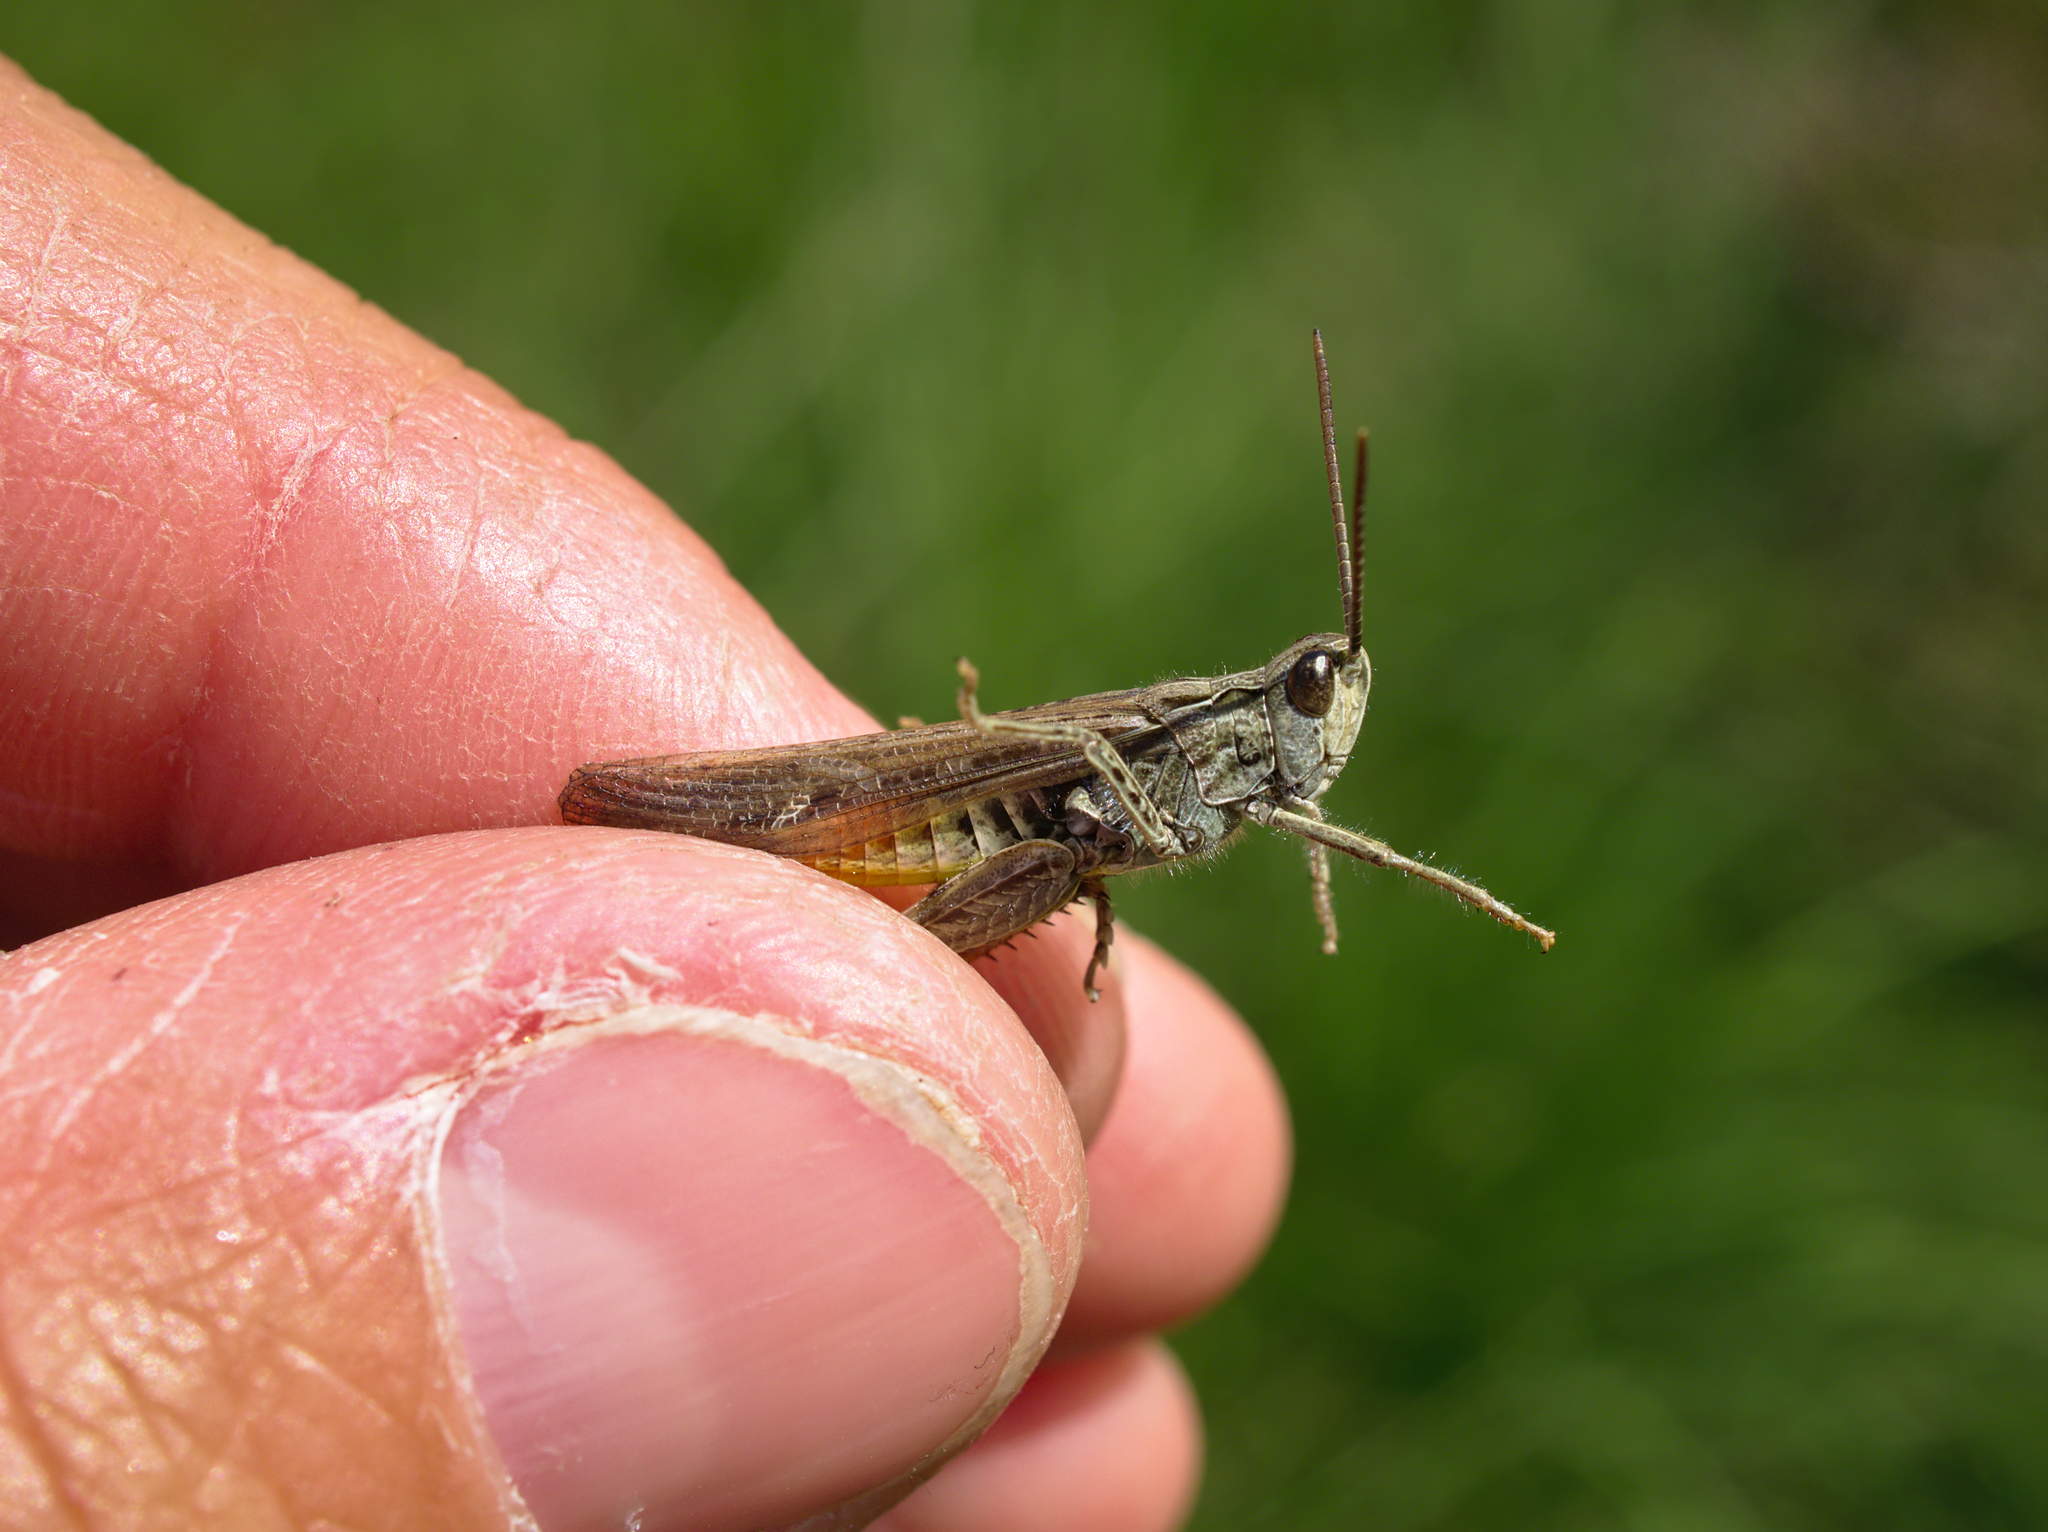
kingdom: Animalia
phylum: Arthropoda
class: Insecta
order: Orthoptera
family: Acrididae
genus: Chorthippus
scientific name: Chorthippus brunneus
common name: Field grasshopper
